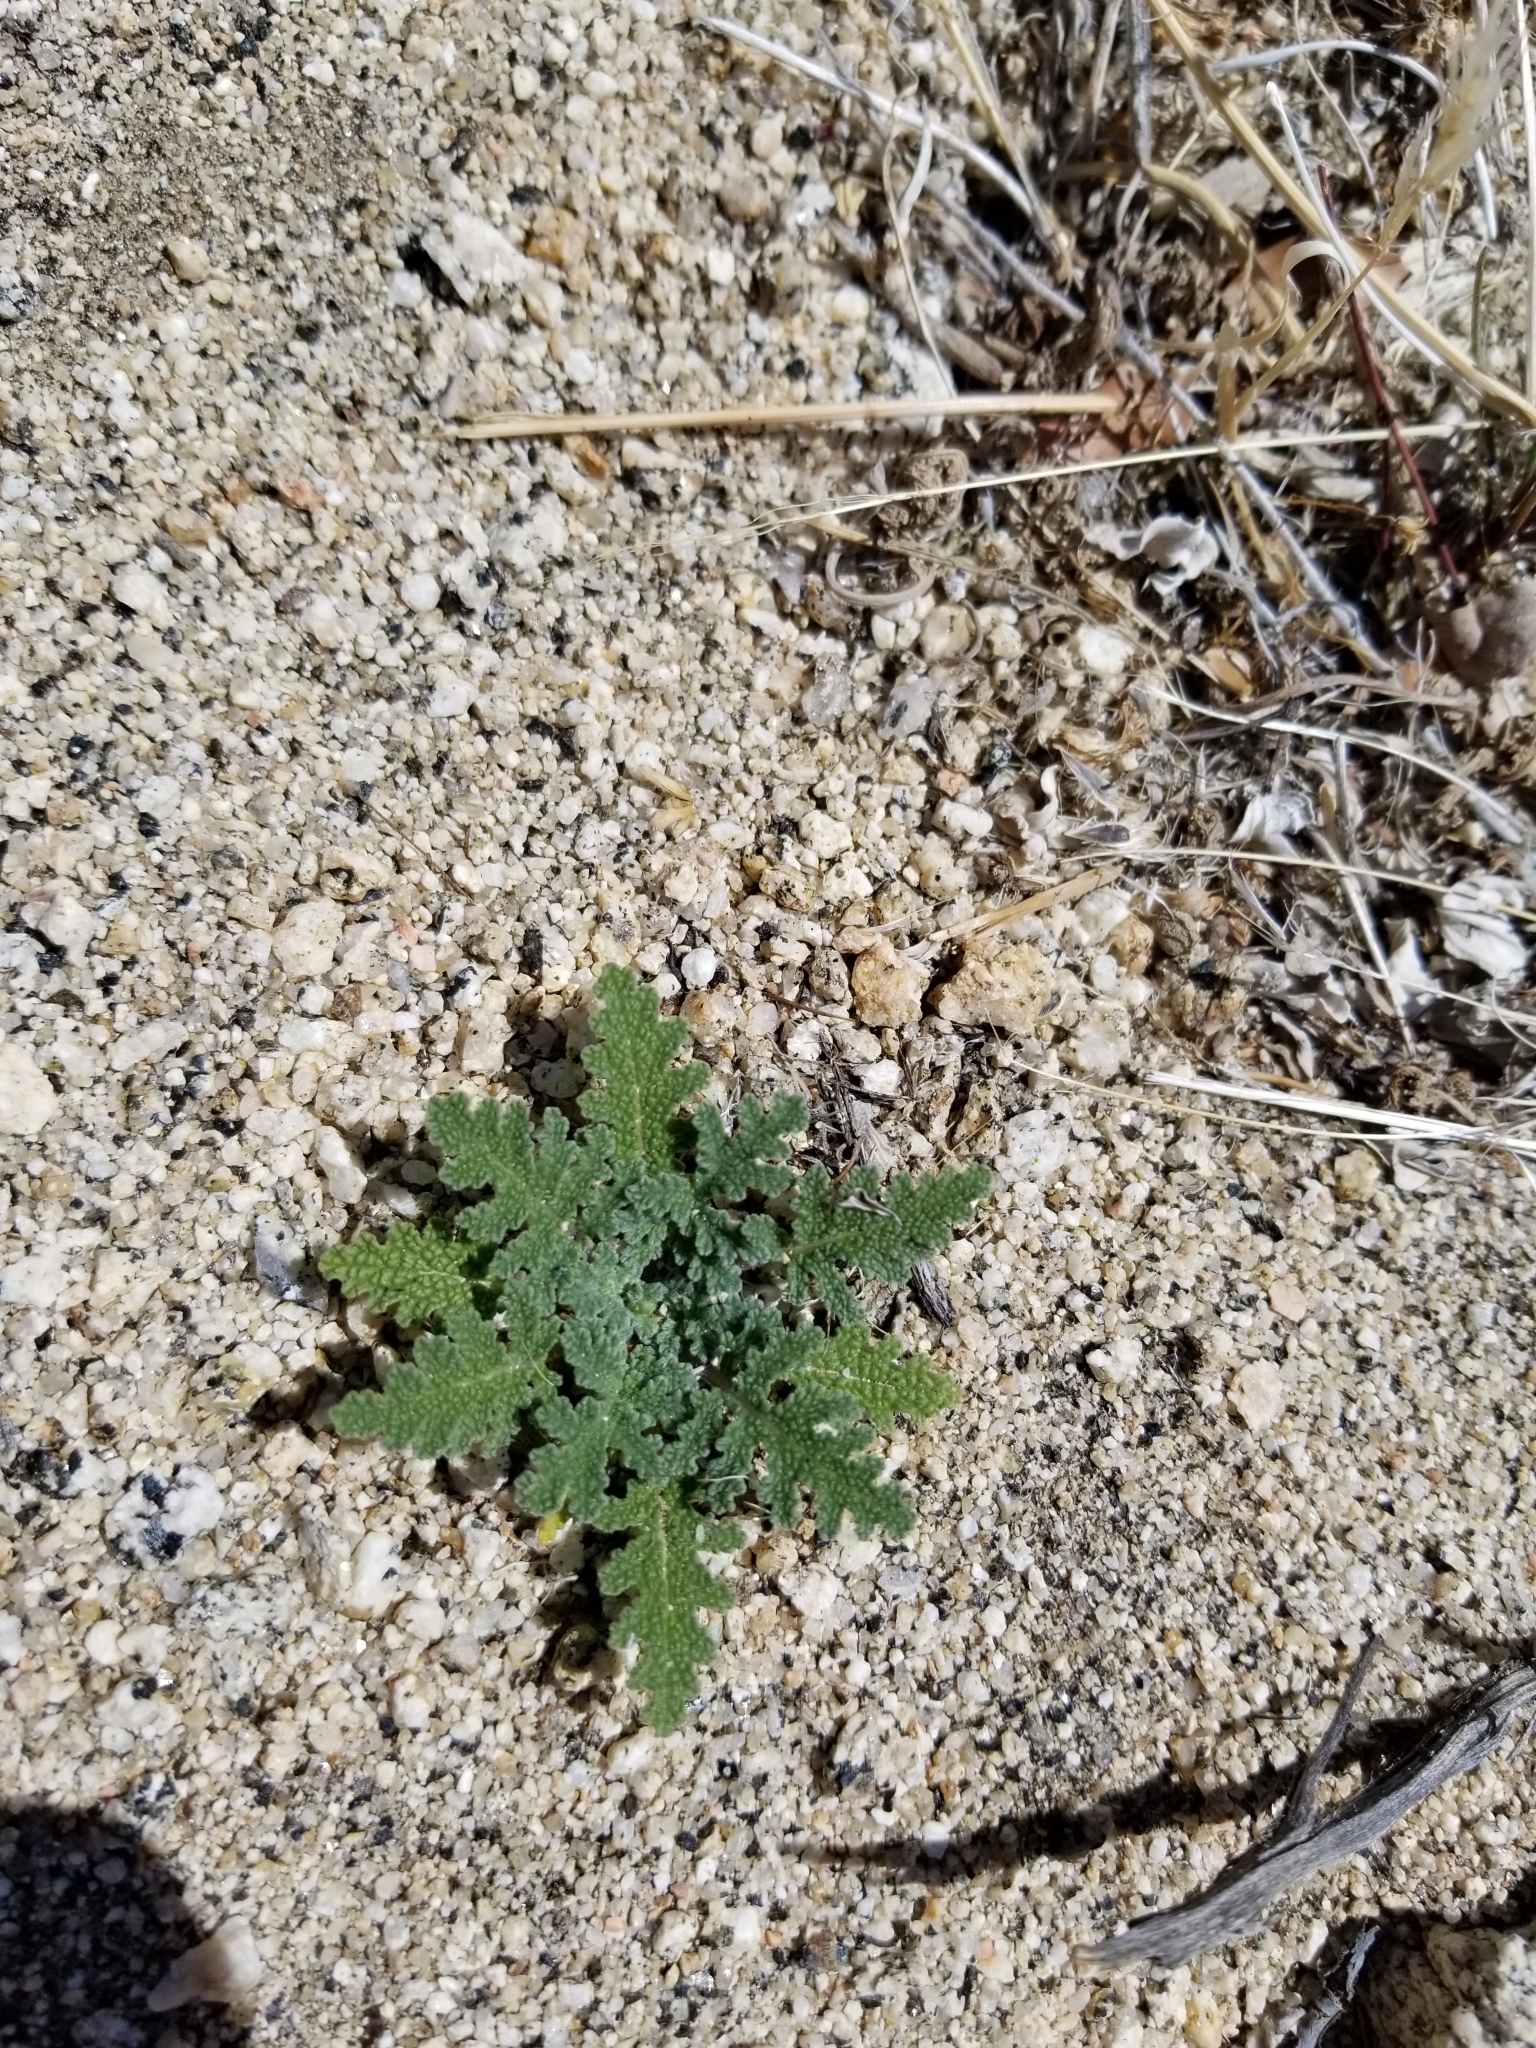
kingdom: Plantae
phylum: Tracheophyta
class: Magnoliopsida
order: Lamiales
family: Lamiaceae
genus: Salvia
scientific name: Salvia columbariae
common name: Chia
